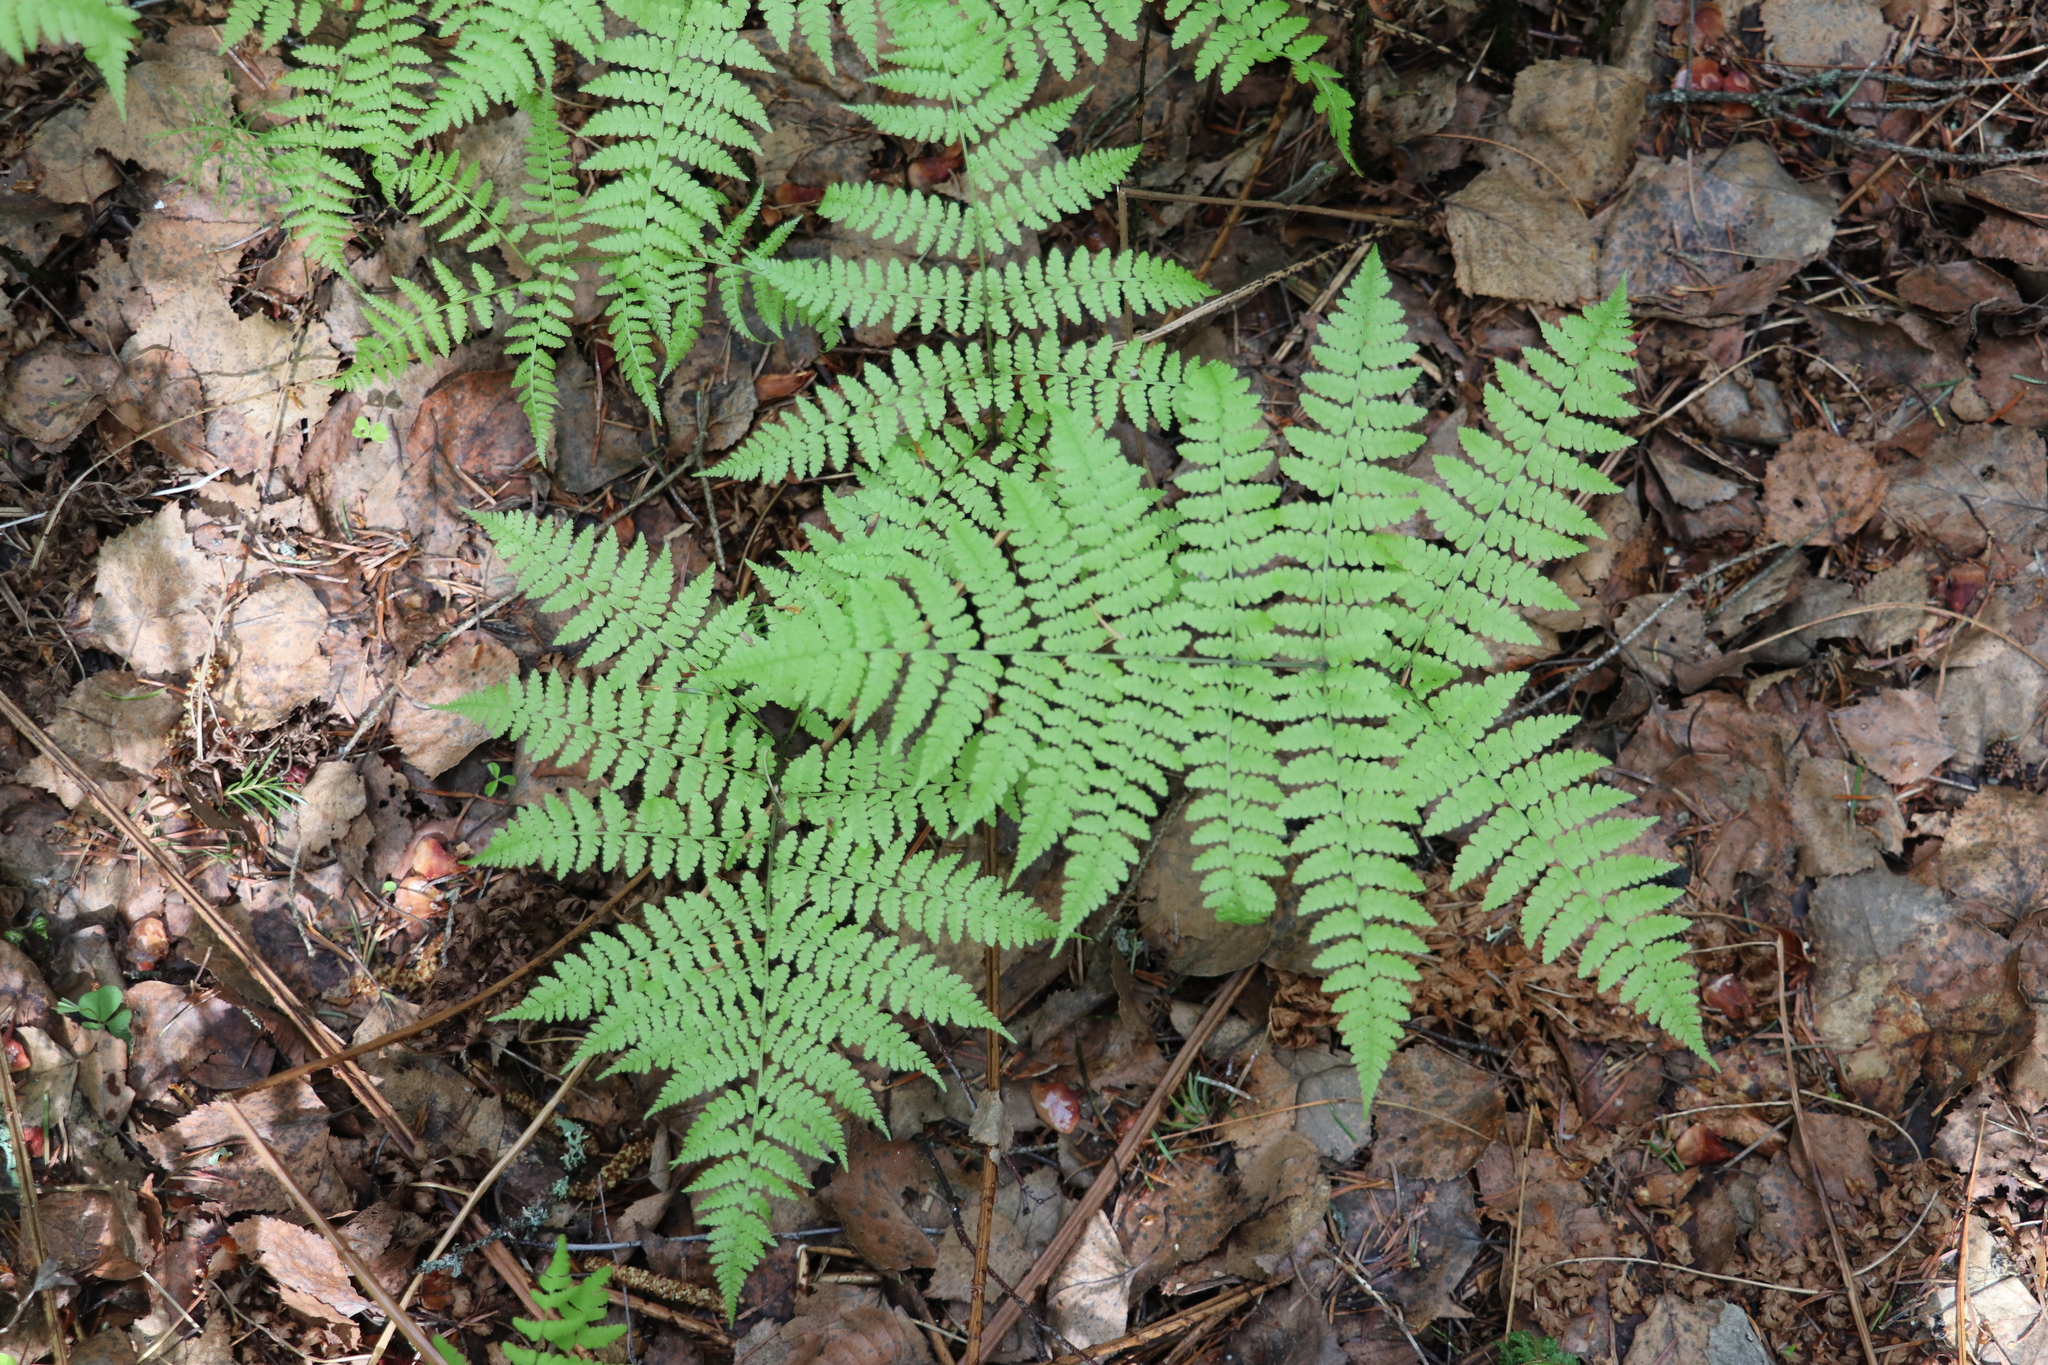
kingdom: Plantae
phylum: Tracheophyta
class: Polypodiopsida
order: Polypodiales
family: Athyriaceae
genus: Diplazium
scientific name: Diplazium sibiricum
